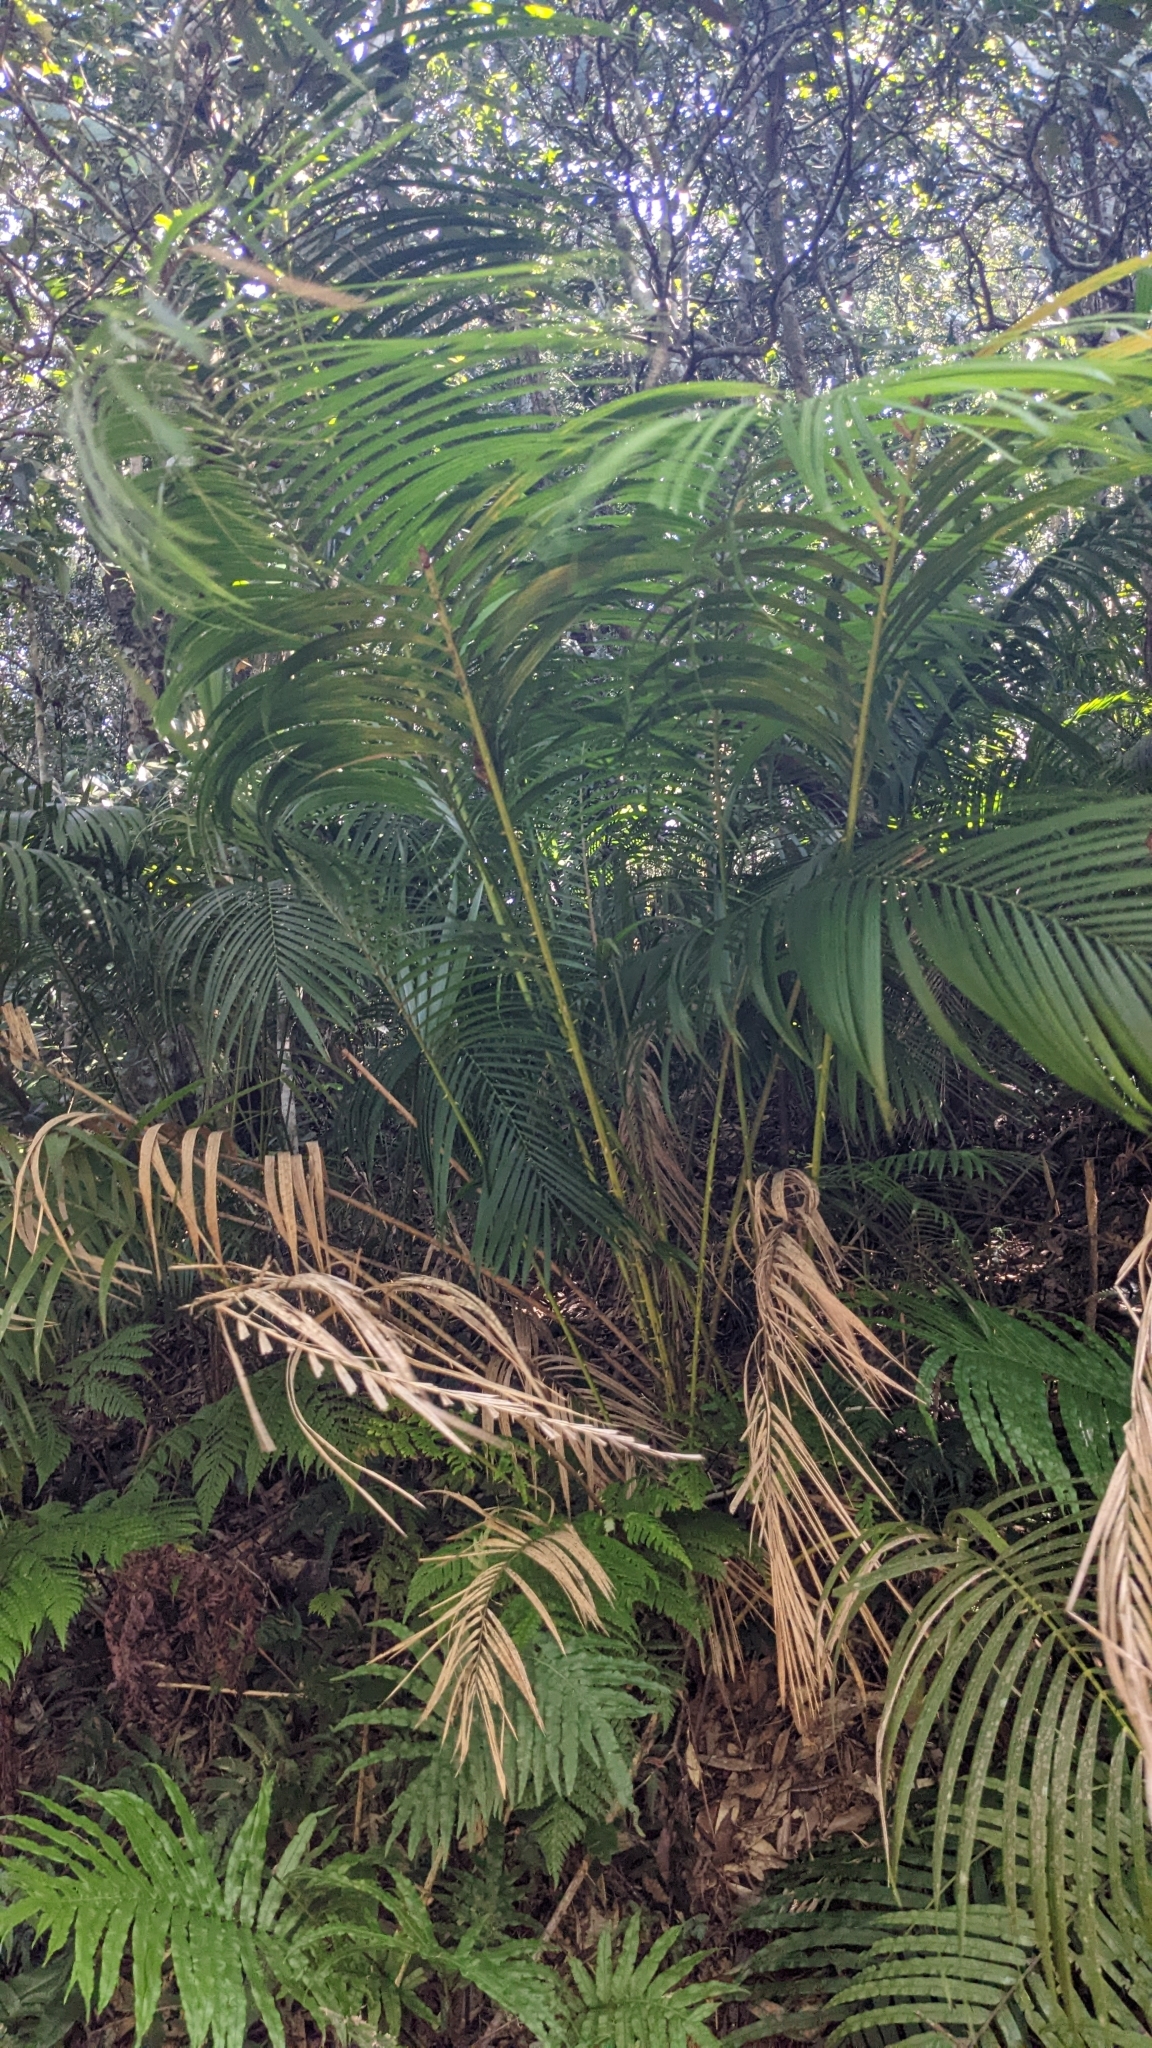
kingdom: Plantae
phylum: Tracheophyta
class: Liliopsida
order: Arecales
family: Arecaceae
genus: Calamus
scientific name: Calamus beccarii
